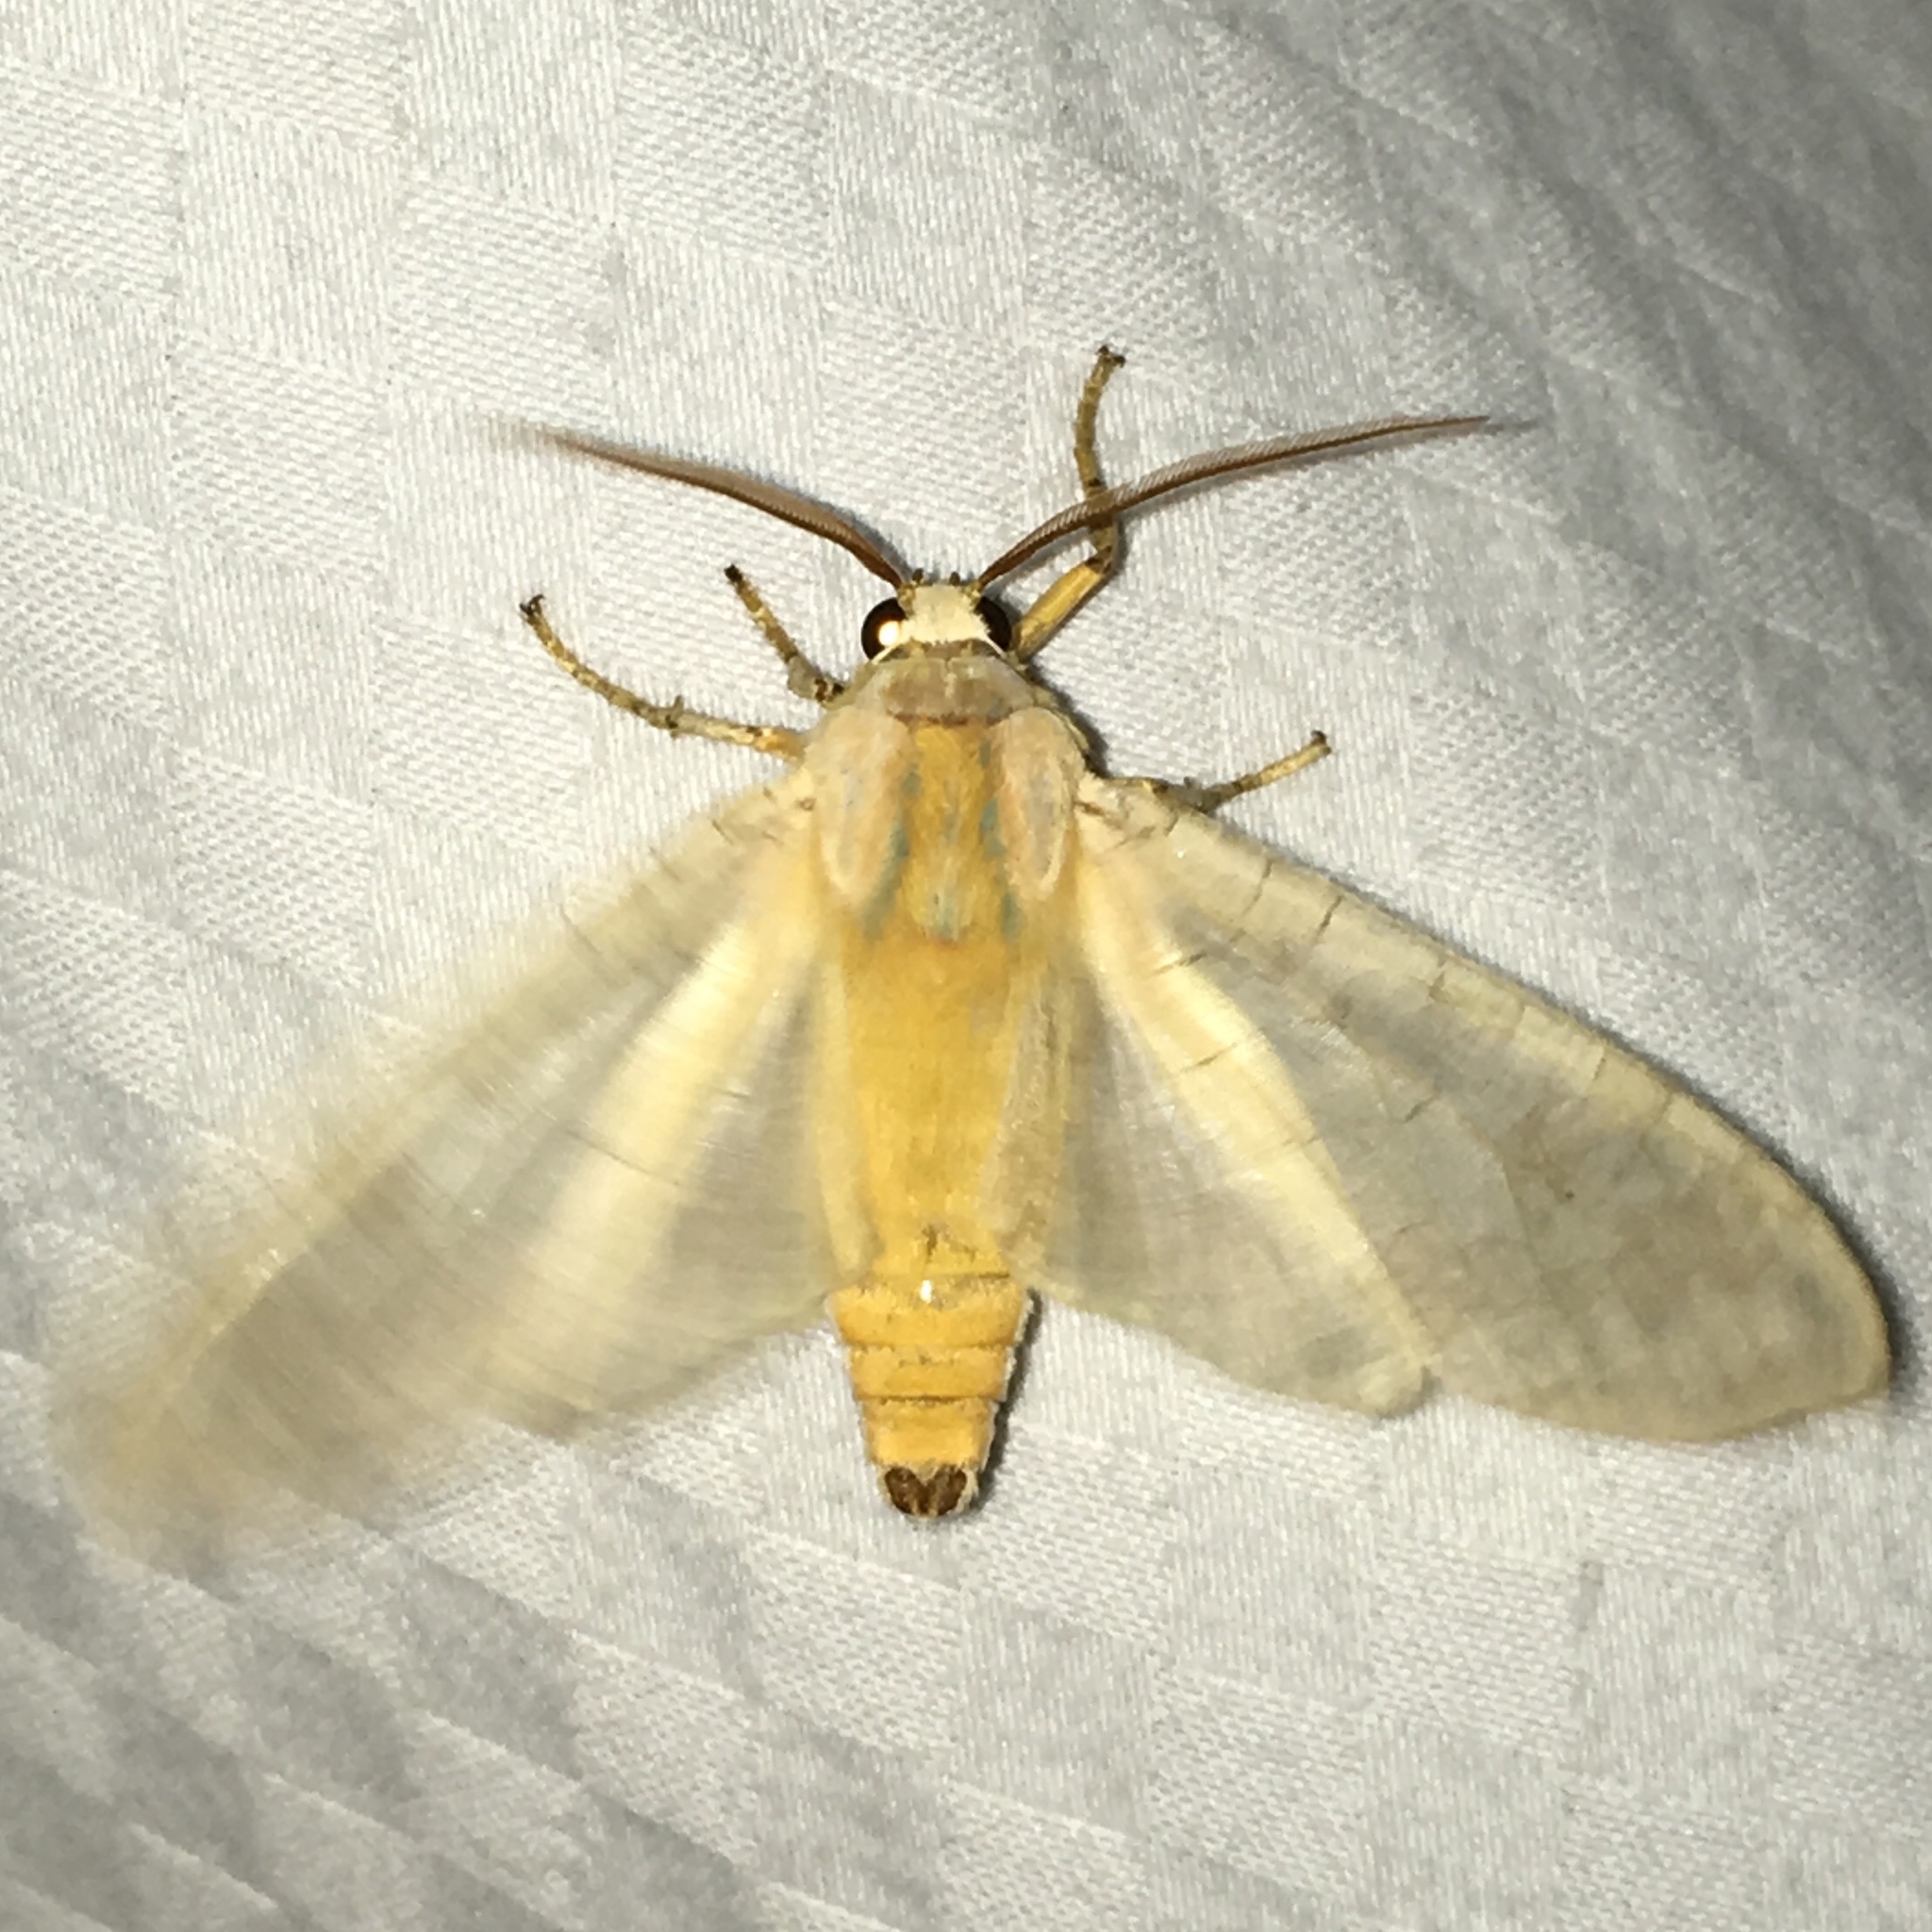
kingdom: Animalia
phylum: Arthropoda
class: Insecta
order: Lepidoptera
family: Erebidae
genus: Halysidota
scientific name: Halysidota tessellaris
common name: Banded tussock moth
